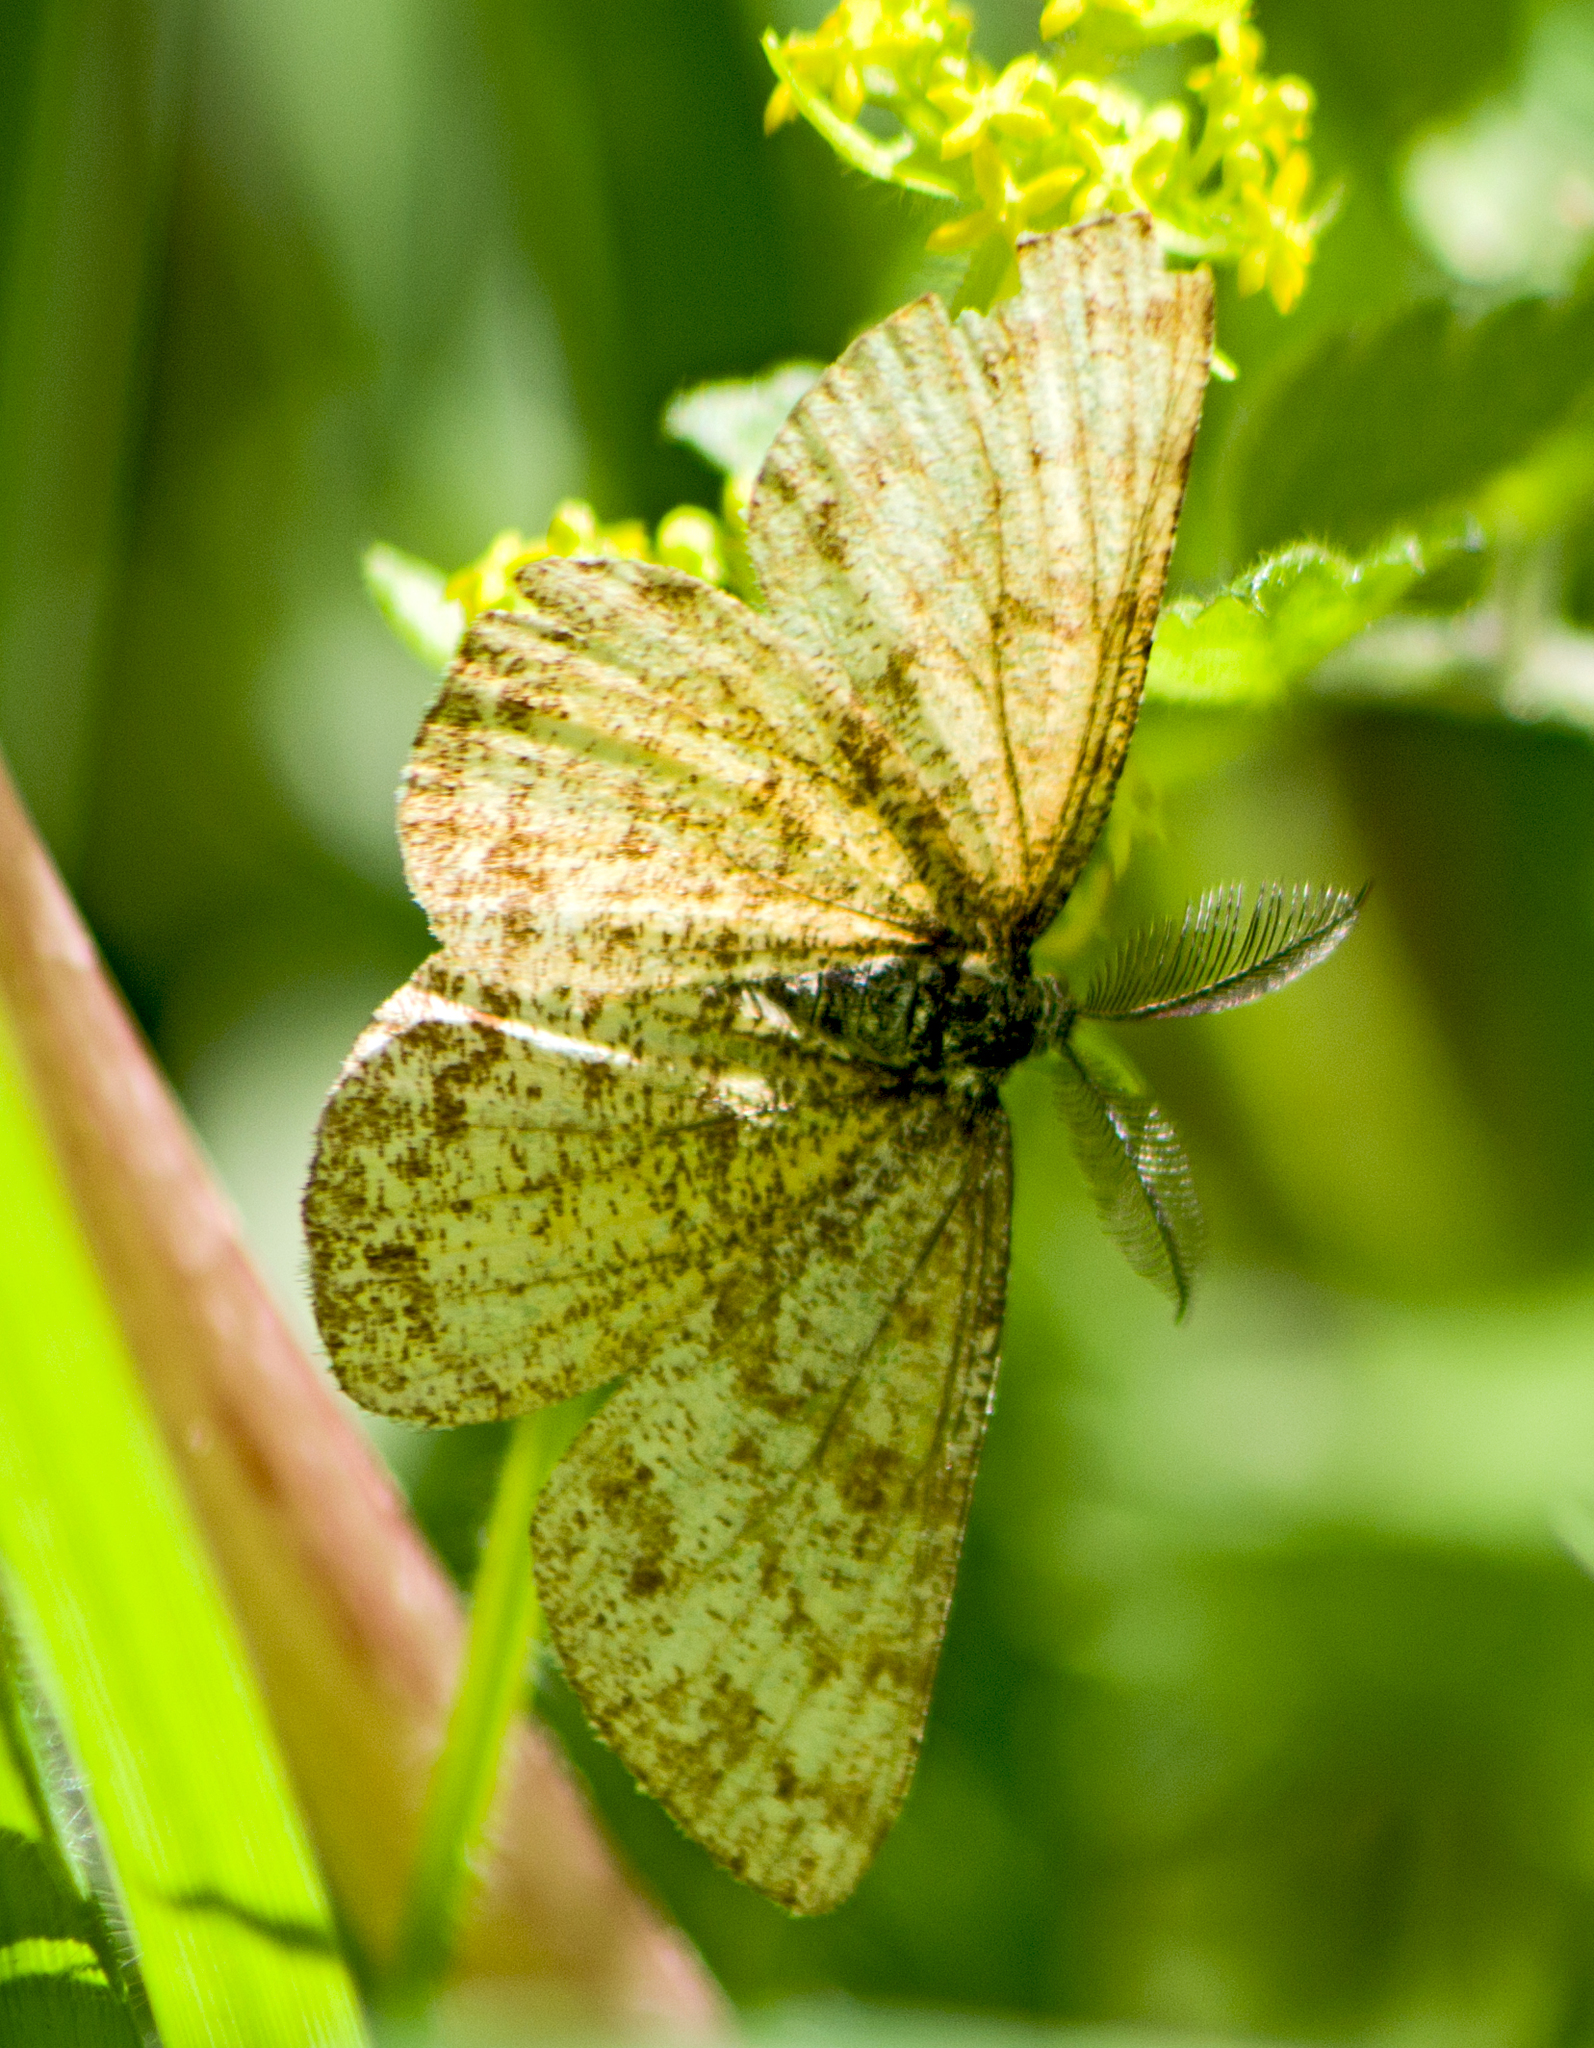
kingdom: Animalia
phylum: Arthropoda
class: Insecta
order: Lepidoptera
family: Geometridae
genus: Ematurga
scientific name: Ematurga atomaria
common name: Common heath
